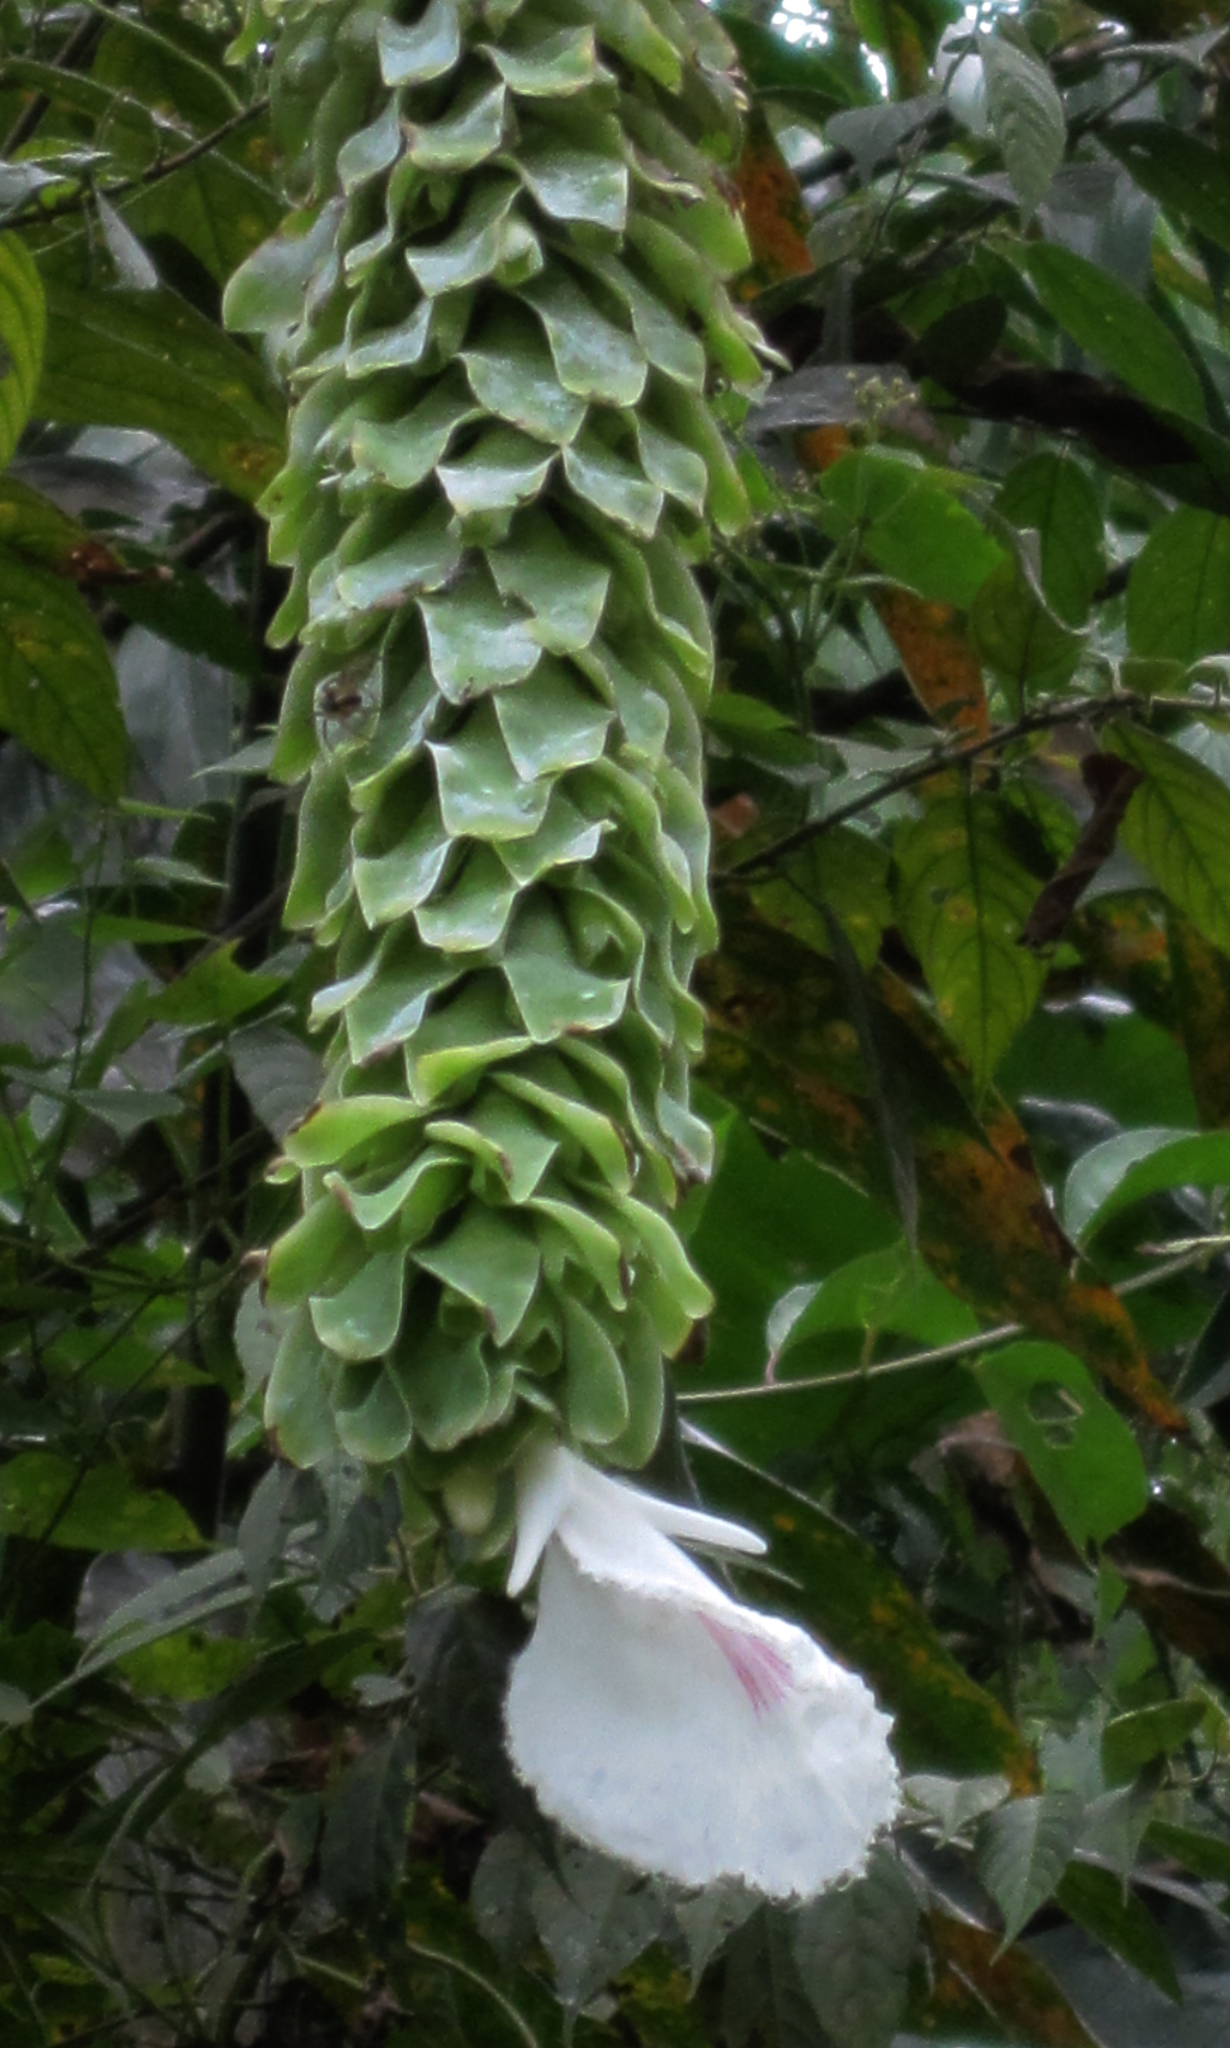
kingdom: Plantae
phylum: Tracheophyta
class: Liliopsida
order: Zingiberales
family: Costaceae
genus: Dimerocostus
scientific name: Dimerocostus cryptocalyx
